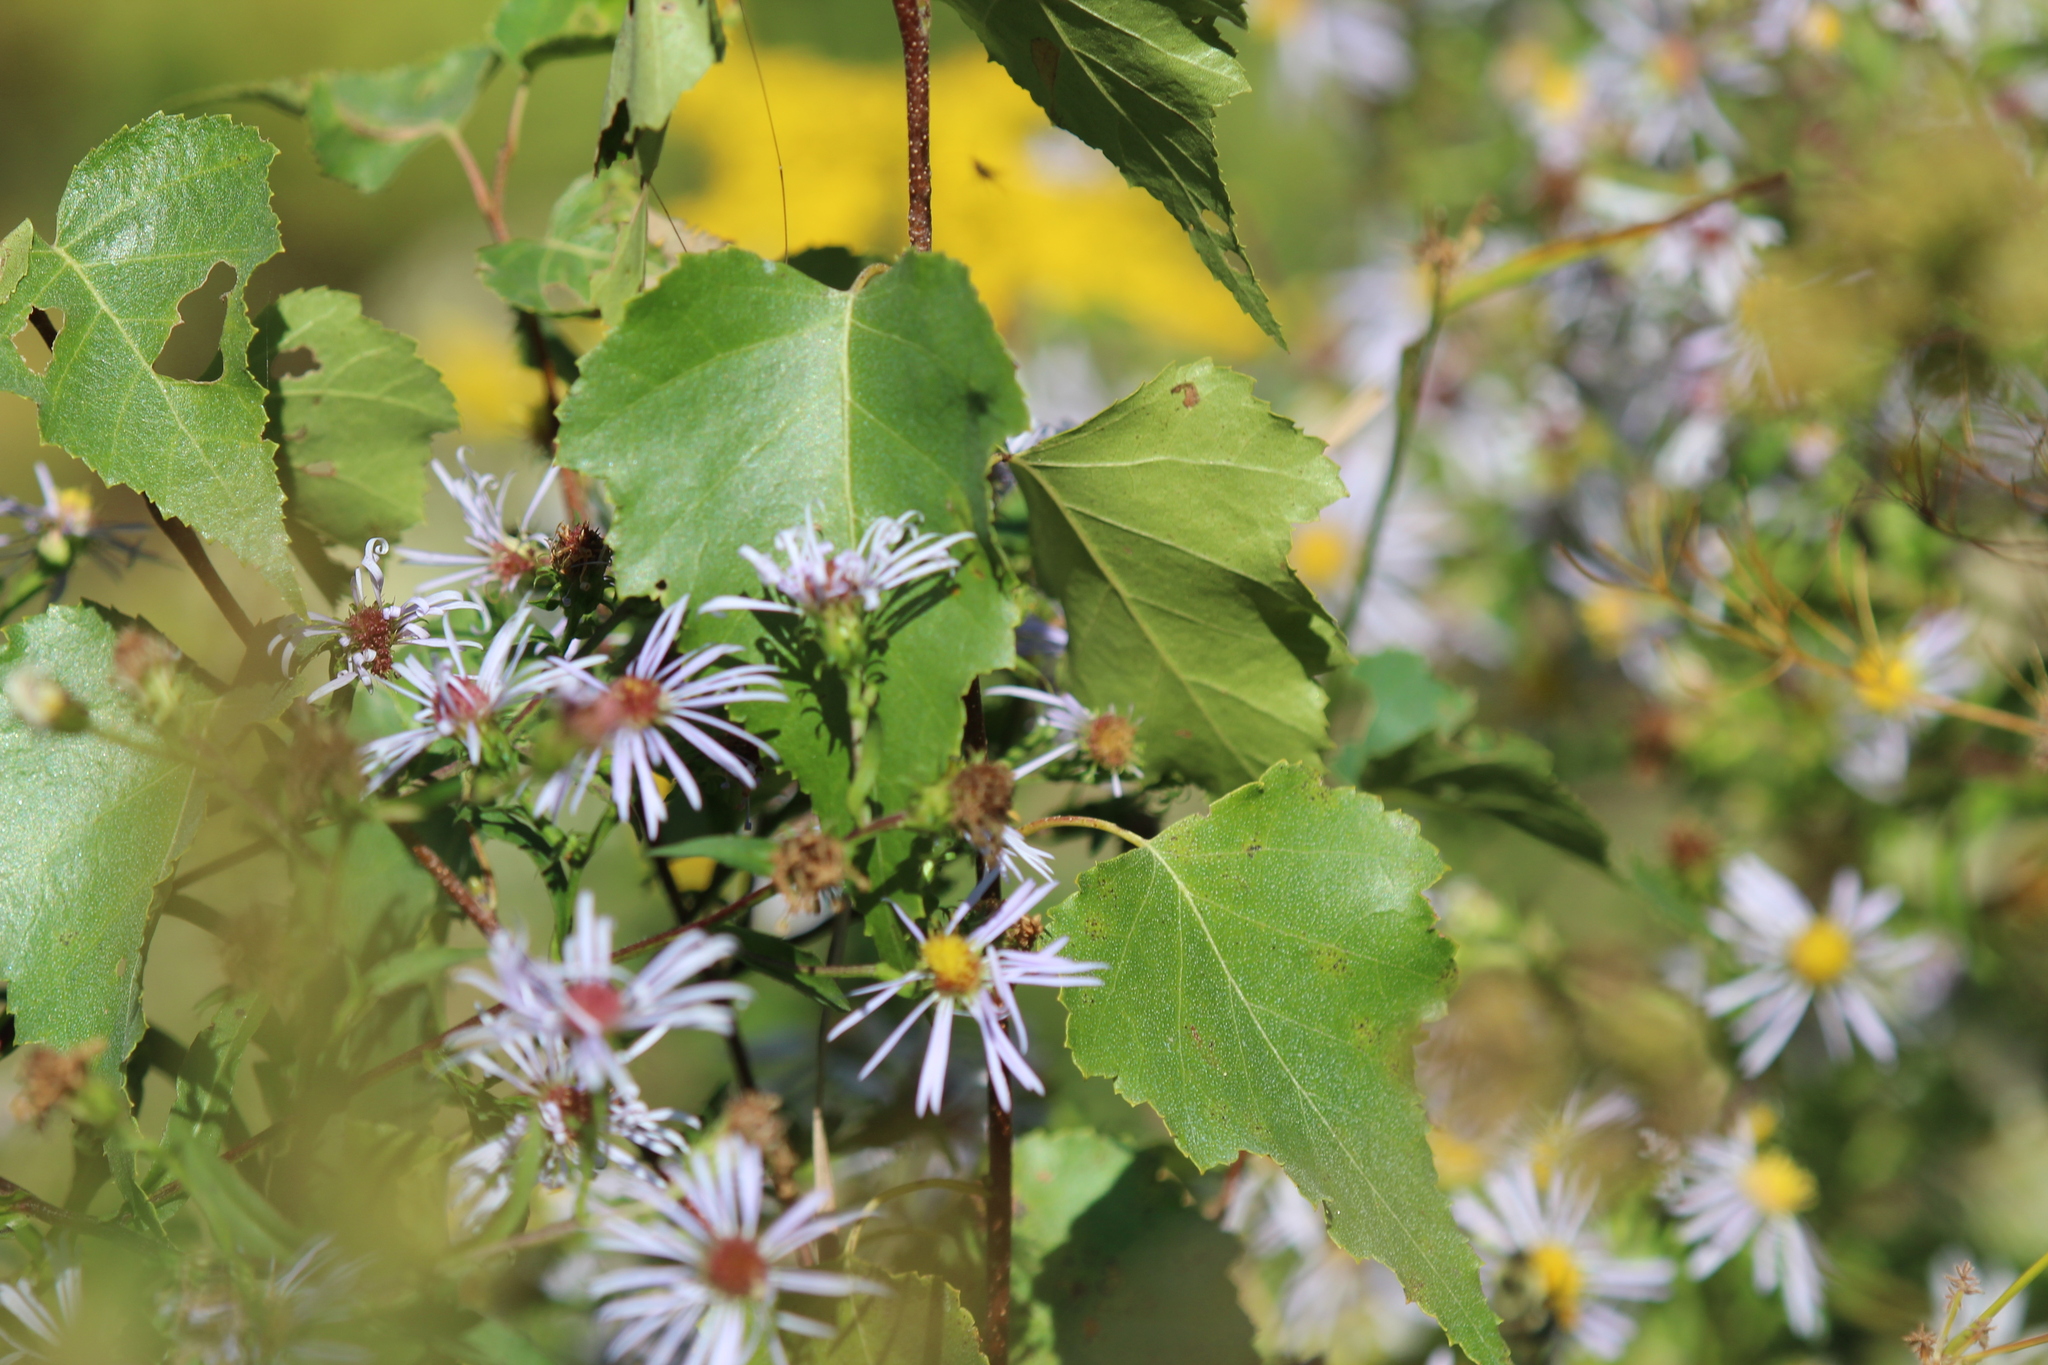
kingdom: Plantae
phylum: Tracheophyta
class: Magnoliopsida
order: Fagales
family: Betulaceae
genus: Betula
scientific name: Betula populifolia
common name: Fire birch
